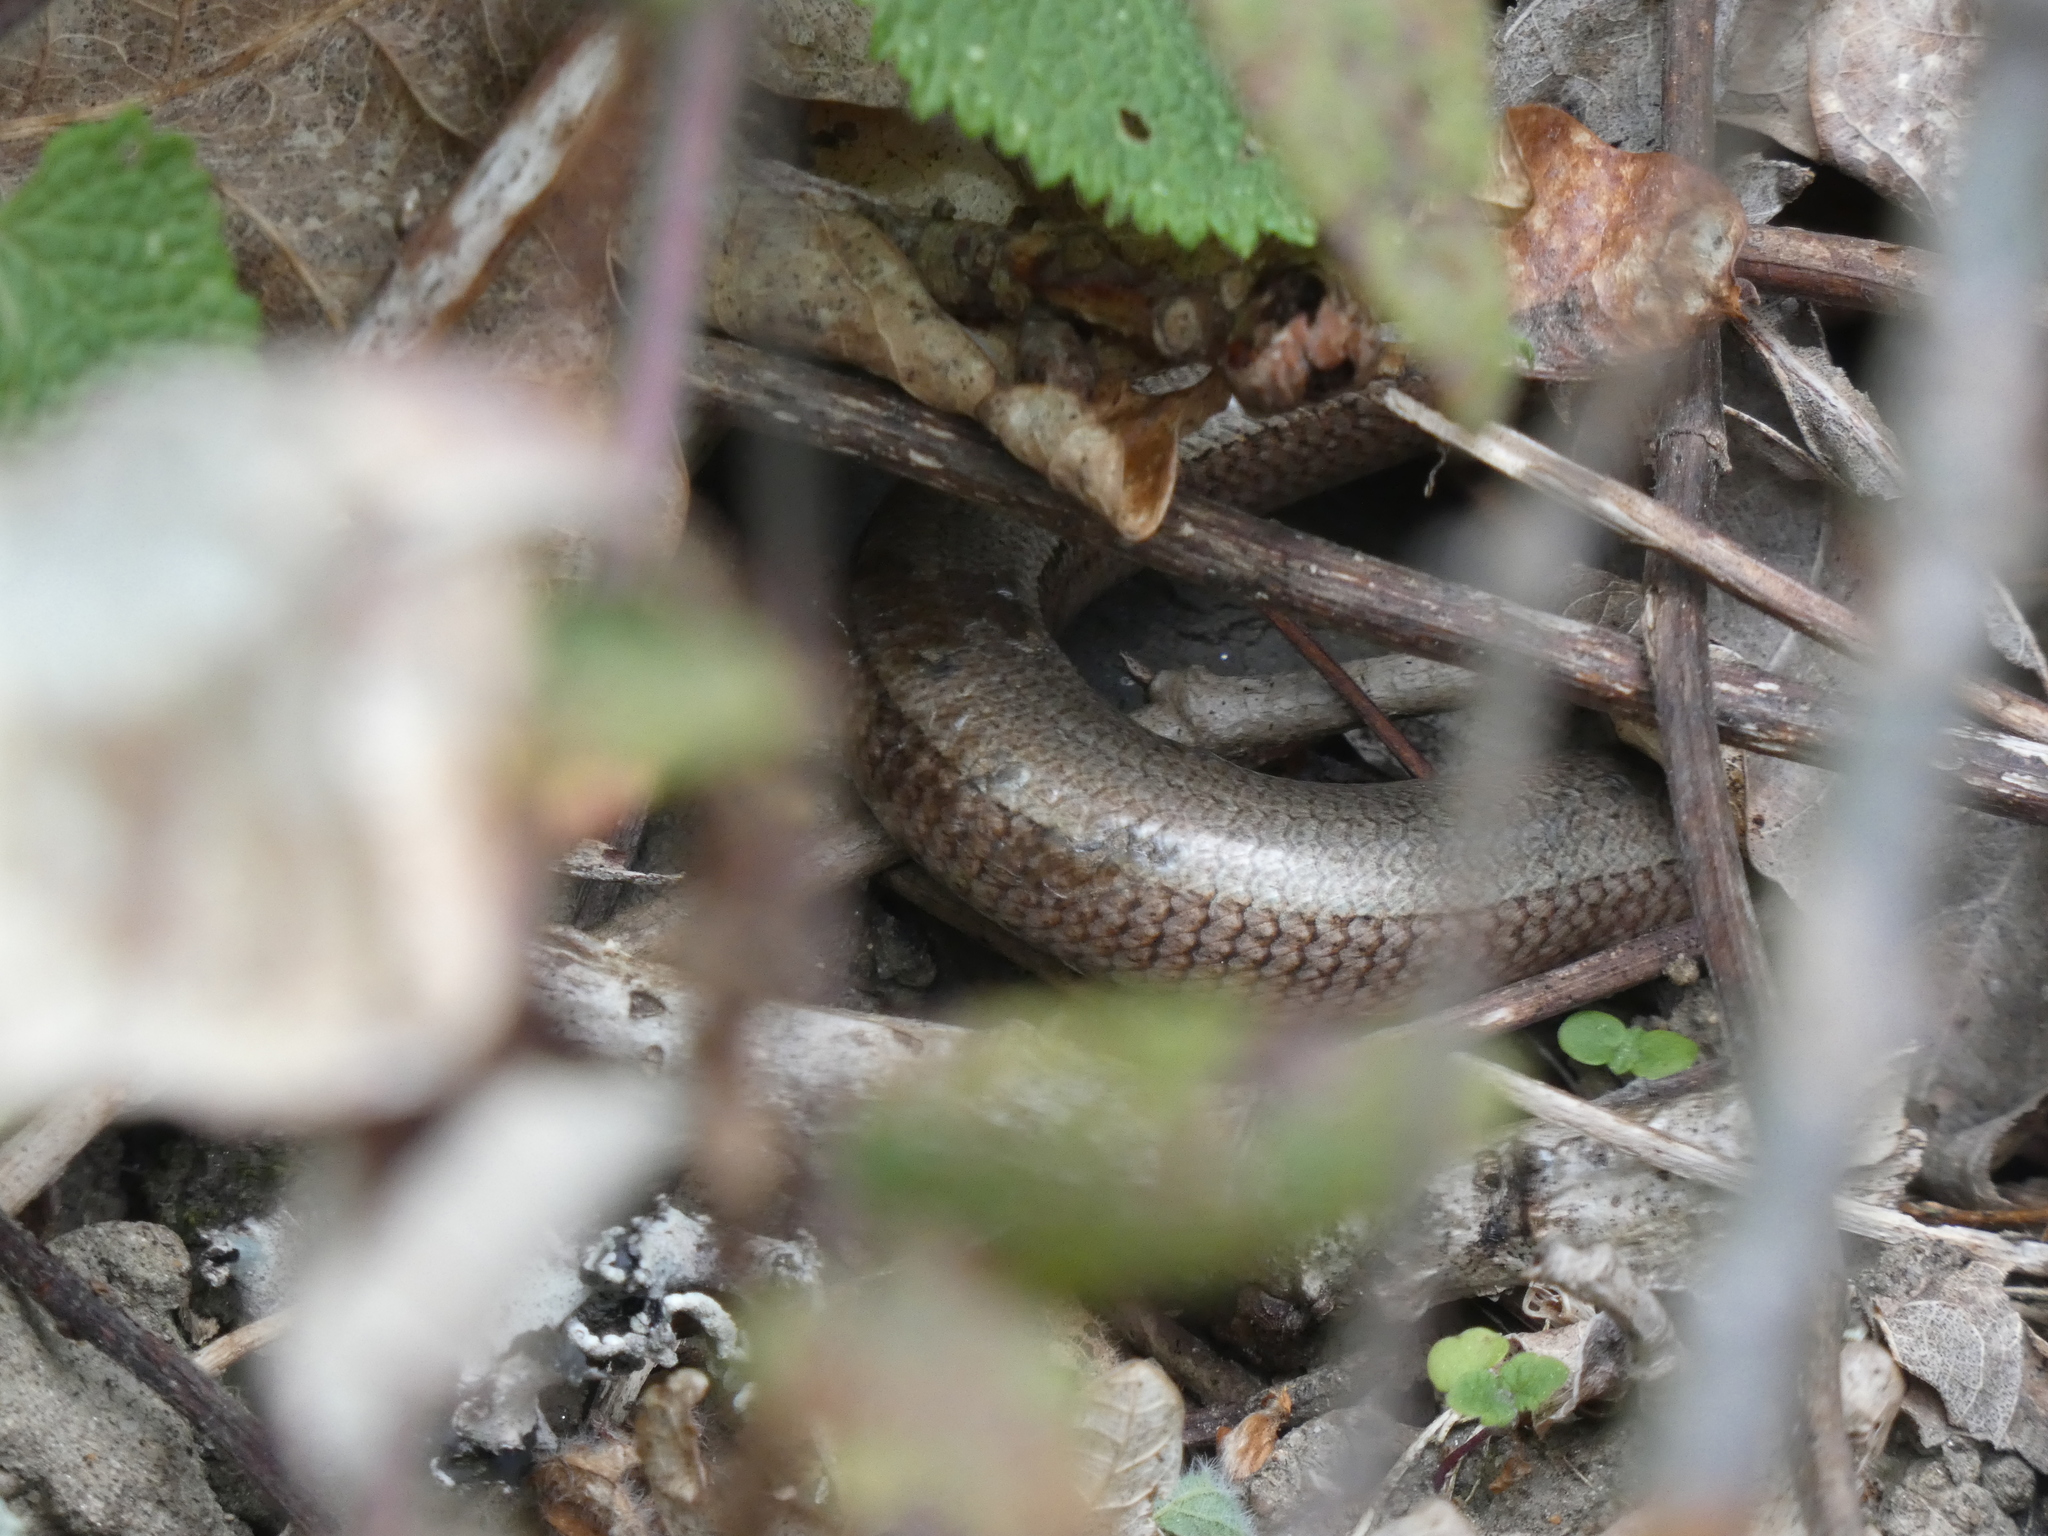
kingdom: Animalia
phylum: Chordata
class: Squamata
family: Anguidae
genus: Anguis
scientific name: Anguis fragilis
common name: Slow worm
